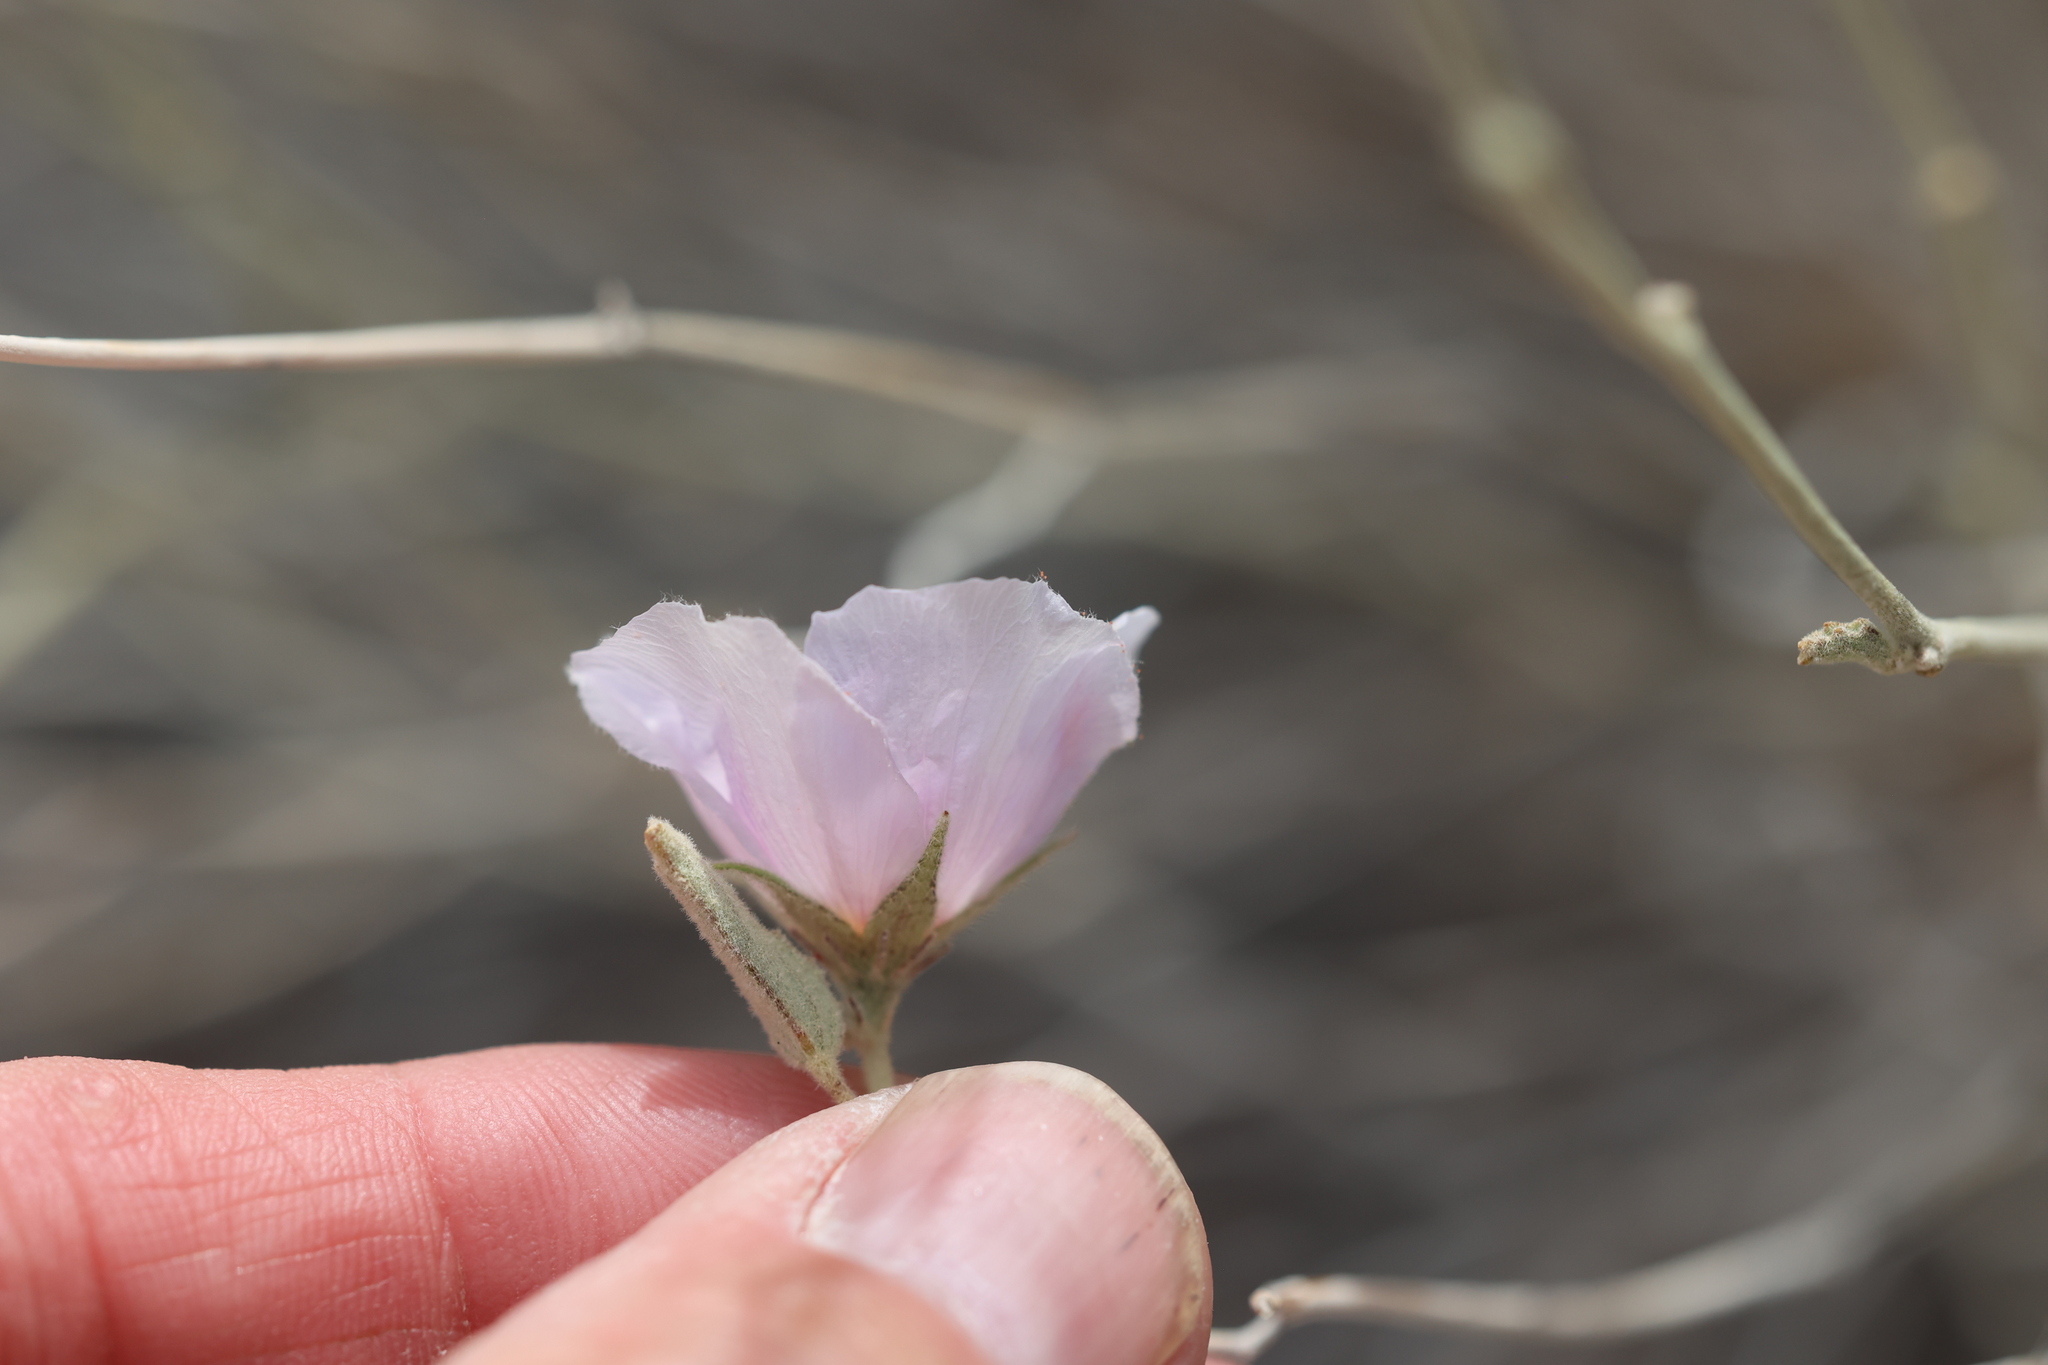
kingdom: Plantae
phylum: Tracheophyta
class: Magnoliopsida
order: Malvales
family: Malvaceae
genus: Hibiscus
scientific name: Hibiscus denudatus
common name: Paleface
